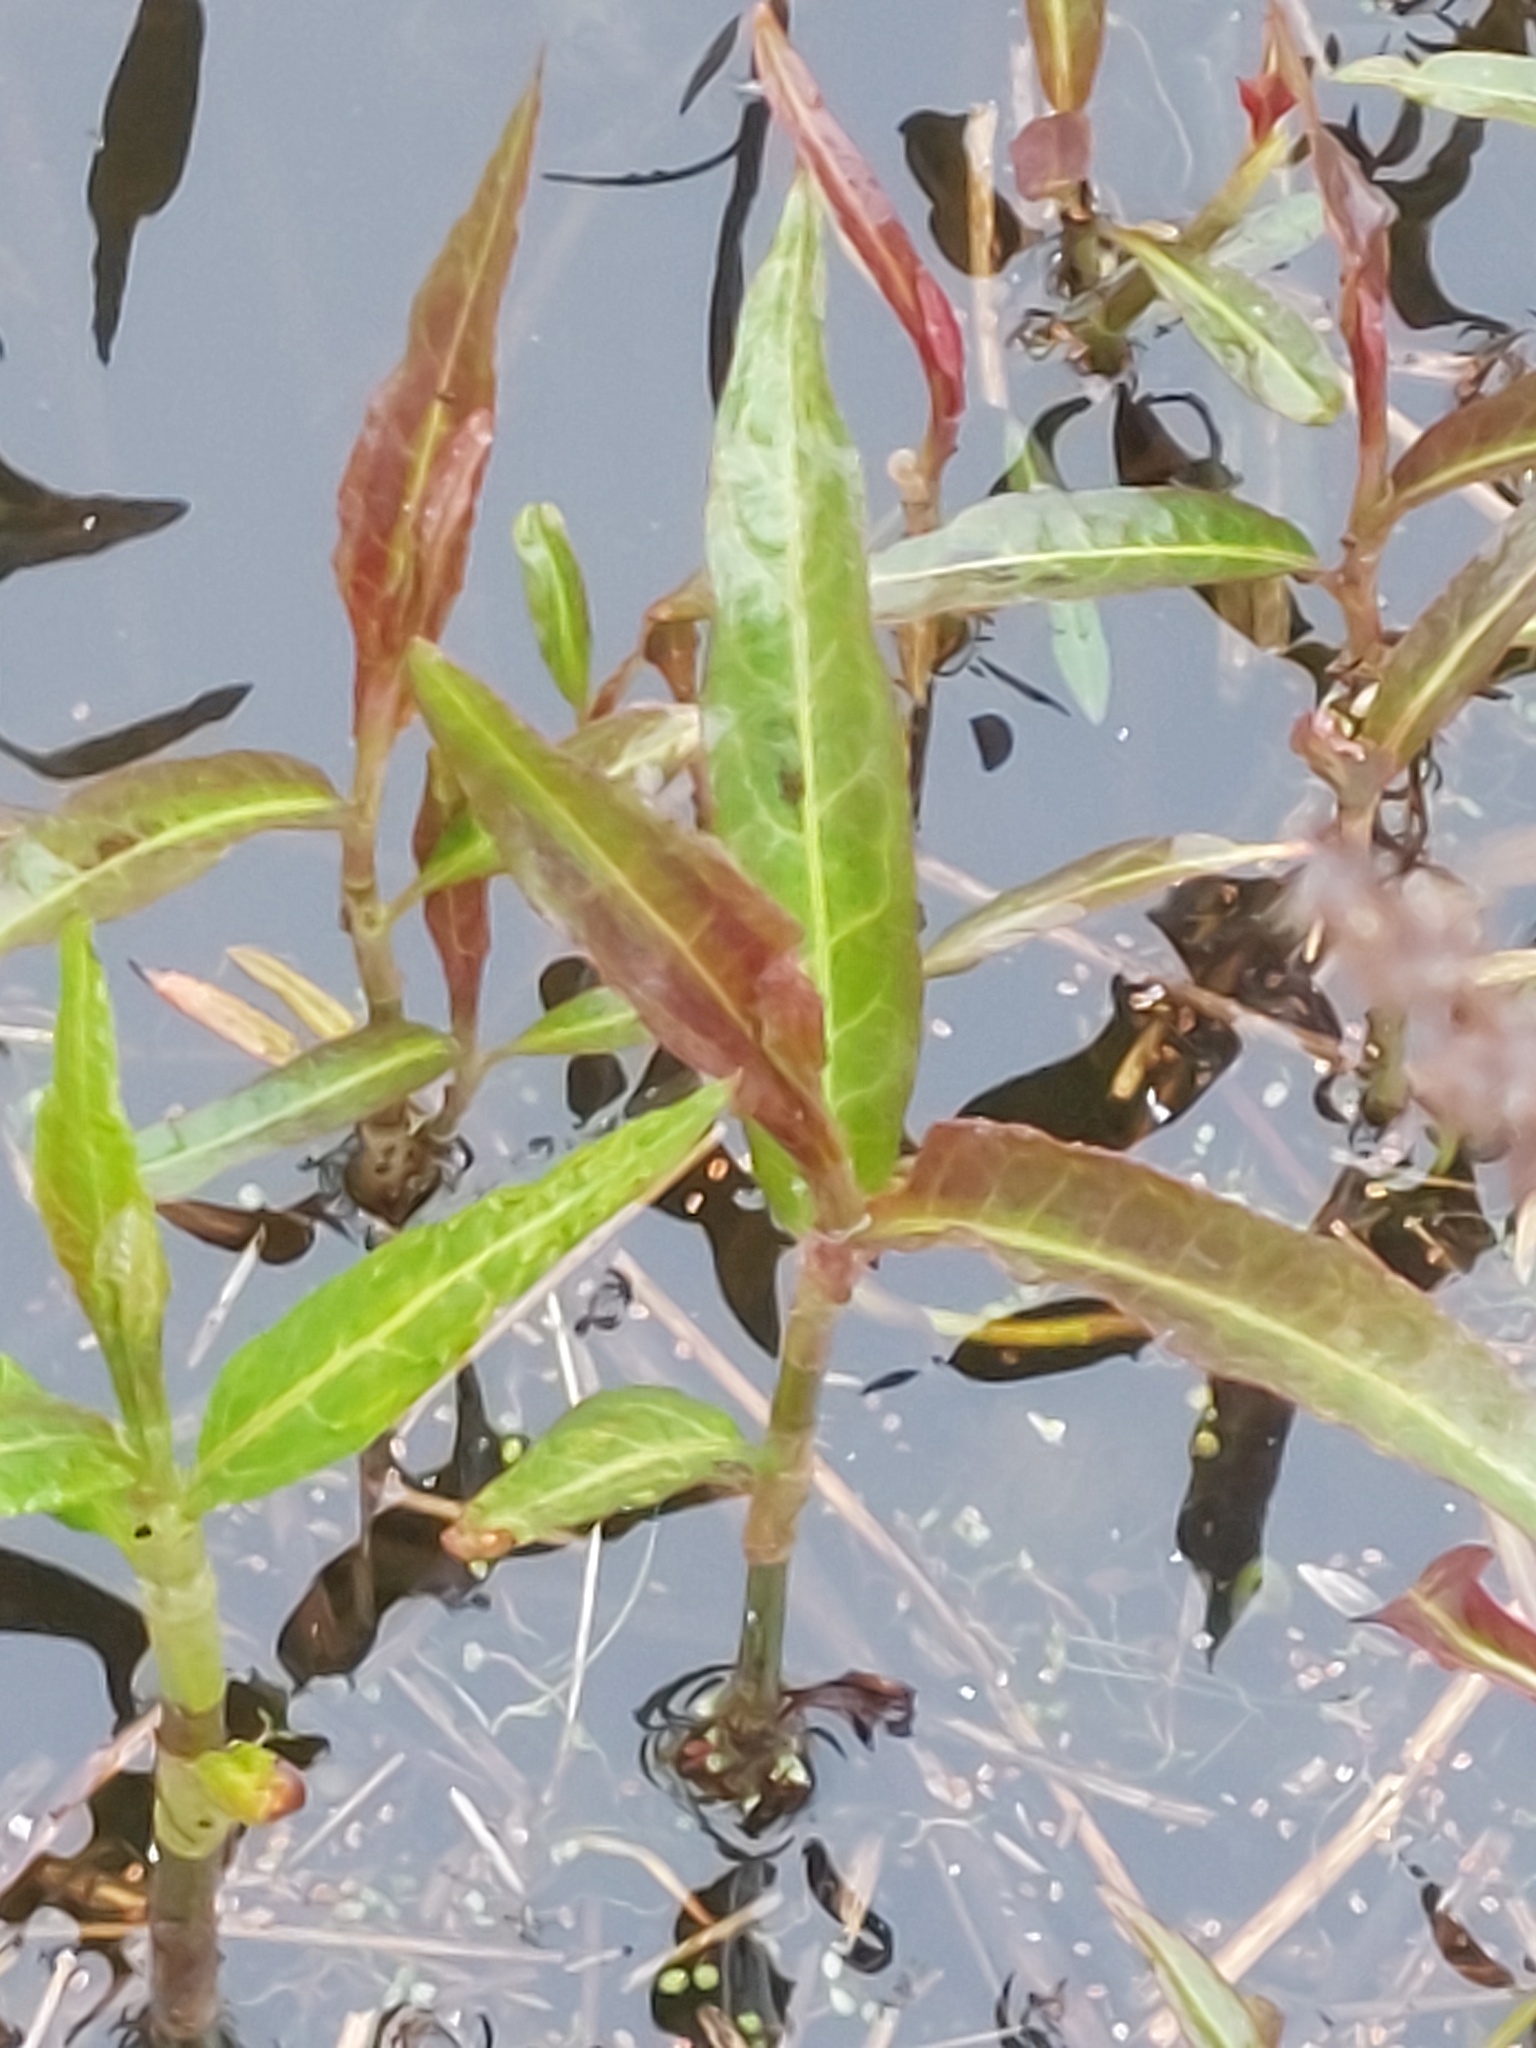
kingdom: Plantae
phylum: Tracheophyta
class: Magnoliopsida
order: Caryophyllales
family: Polygonaceae
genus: Persicaria
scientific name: Persicaria amphibia
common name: Amphibious bistort
